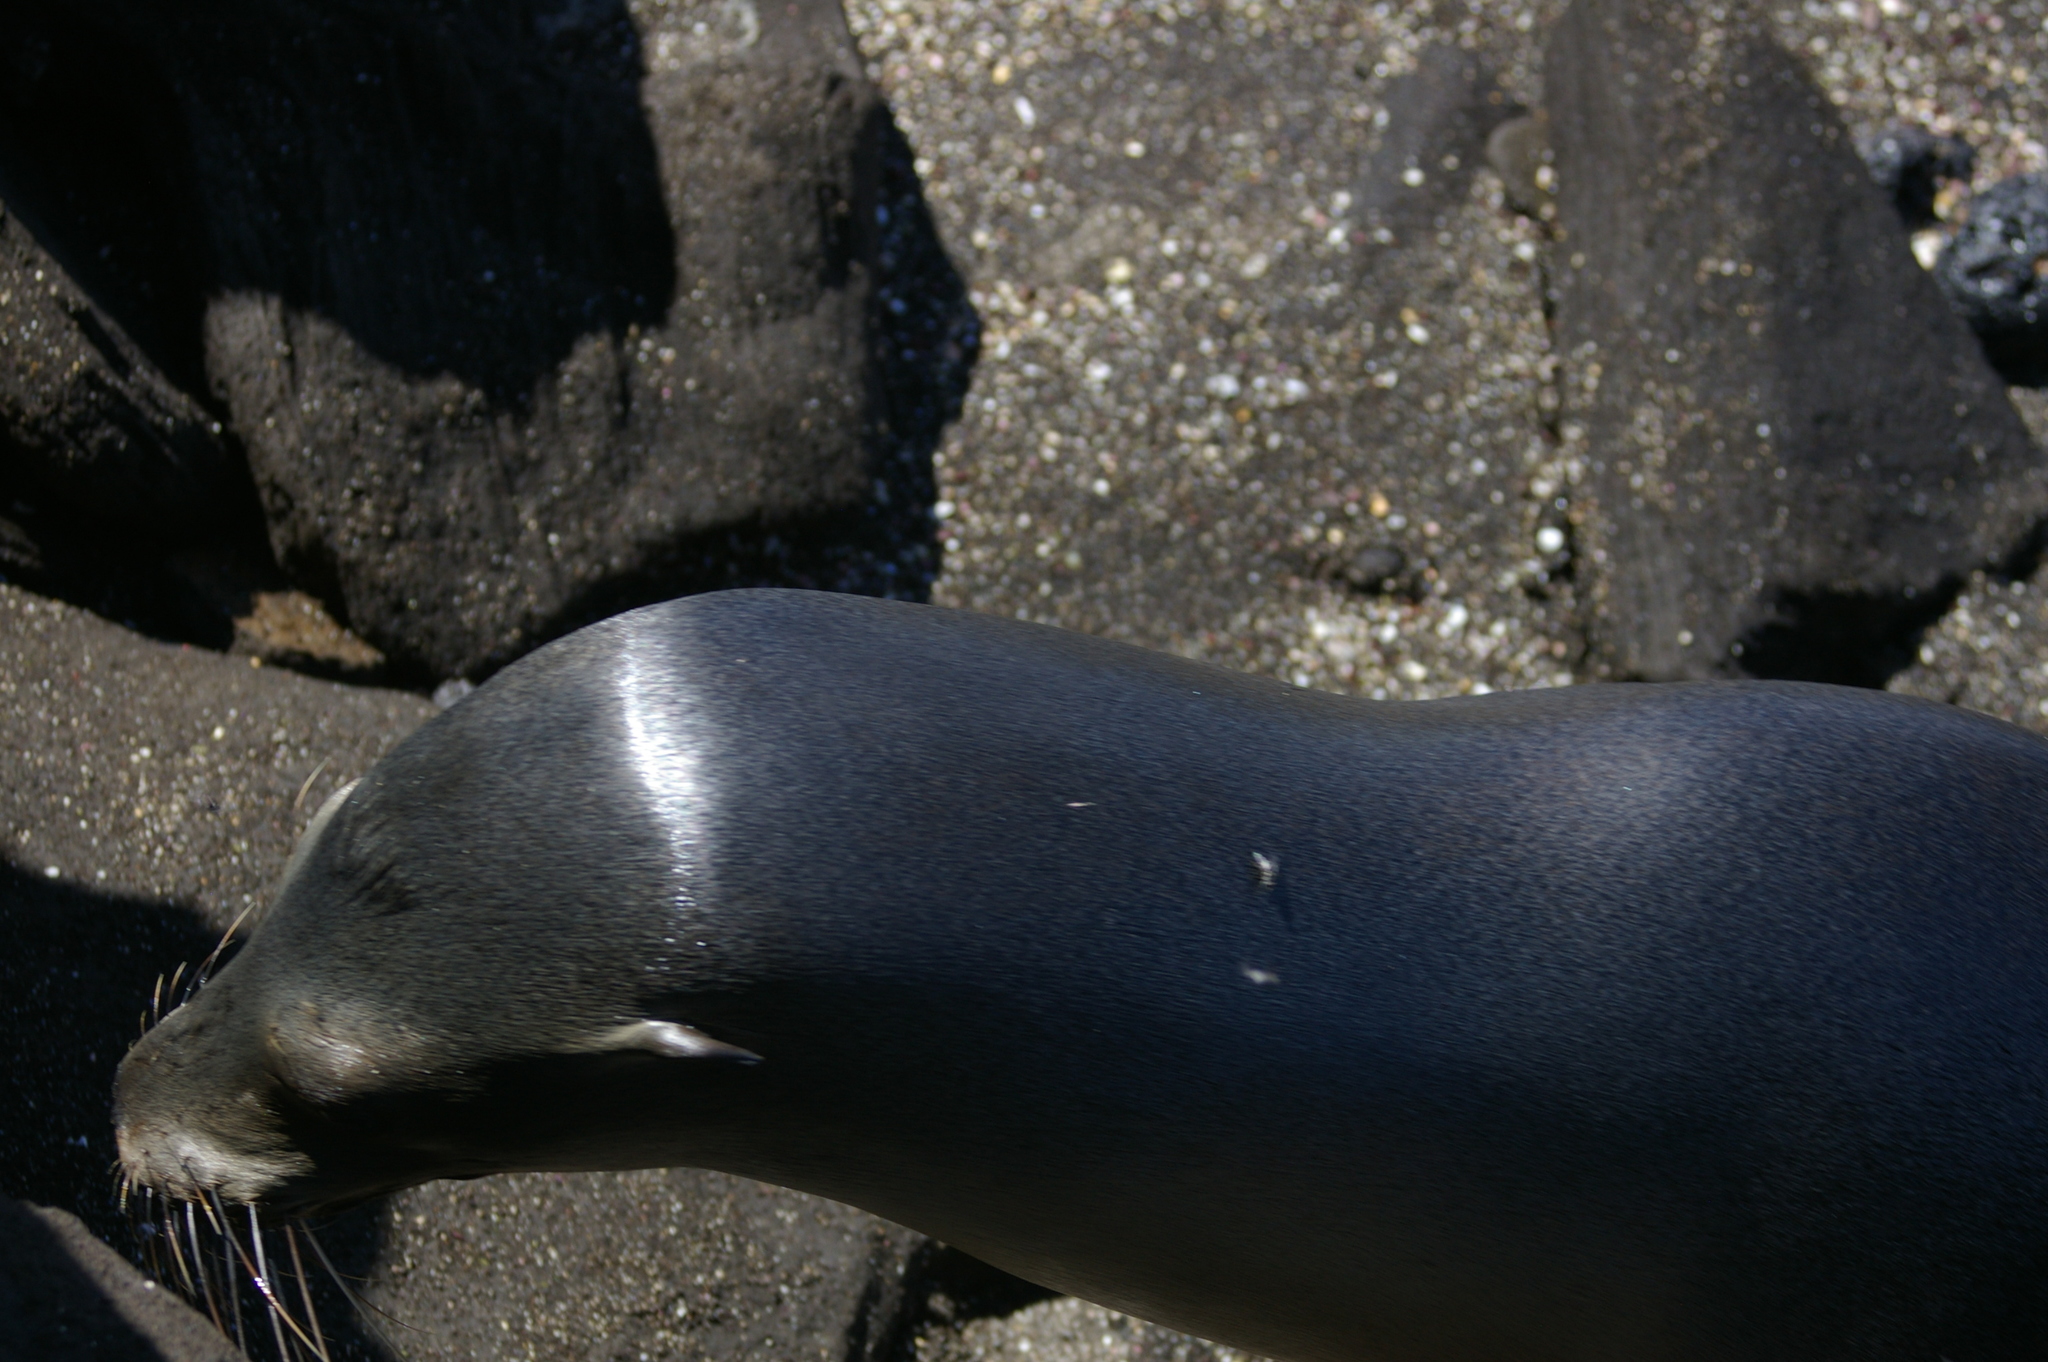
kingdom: Animalia
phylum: Chordata
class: Mammalia
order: Carnivora
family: Otariidae
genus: Zalophus
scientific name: Zalophus wollebaeki
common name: Galapagos sea lion
